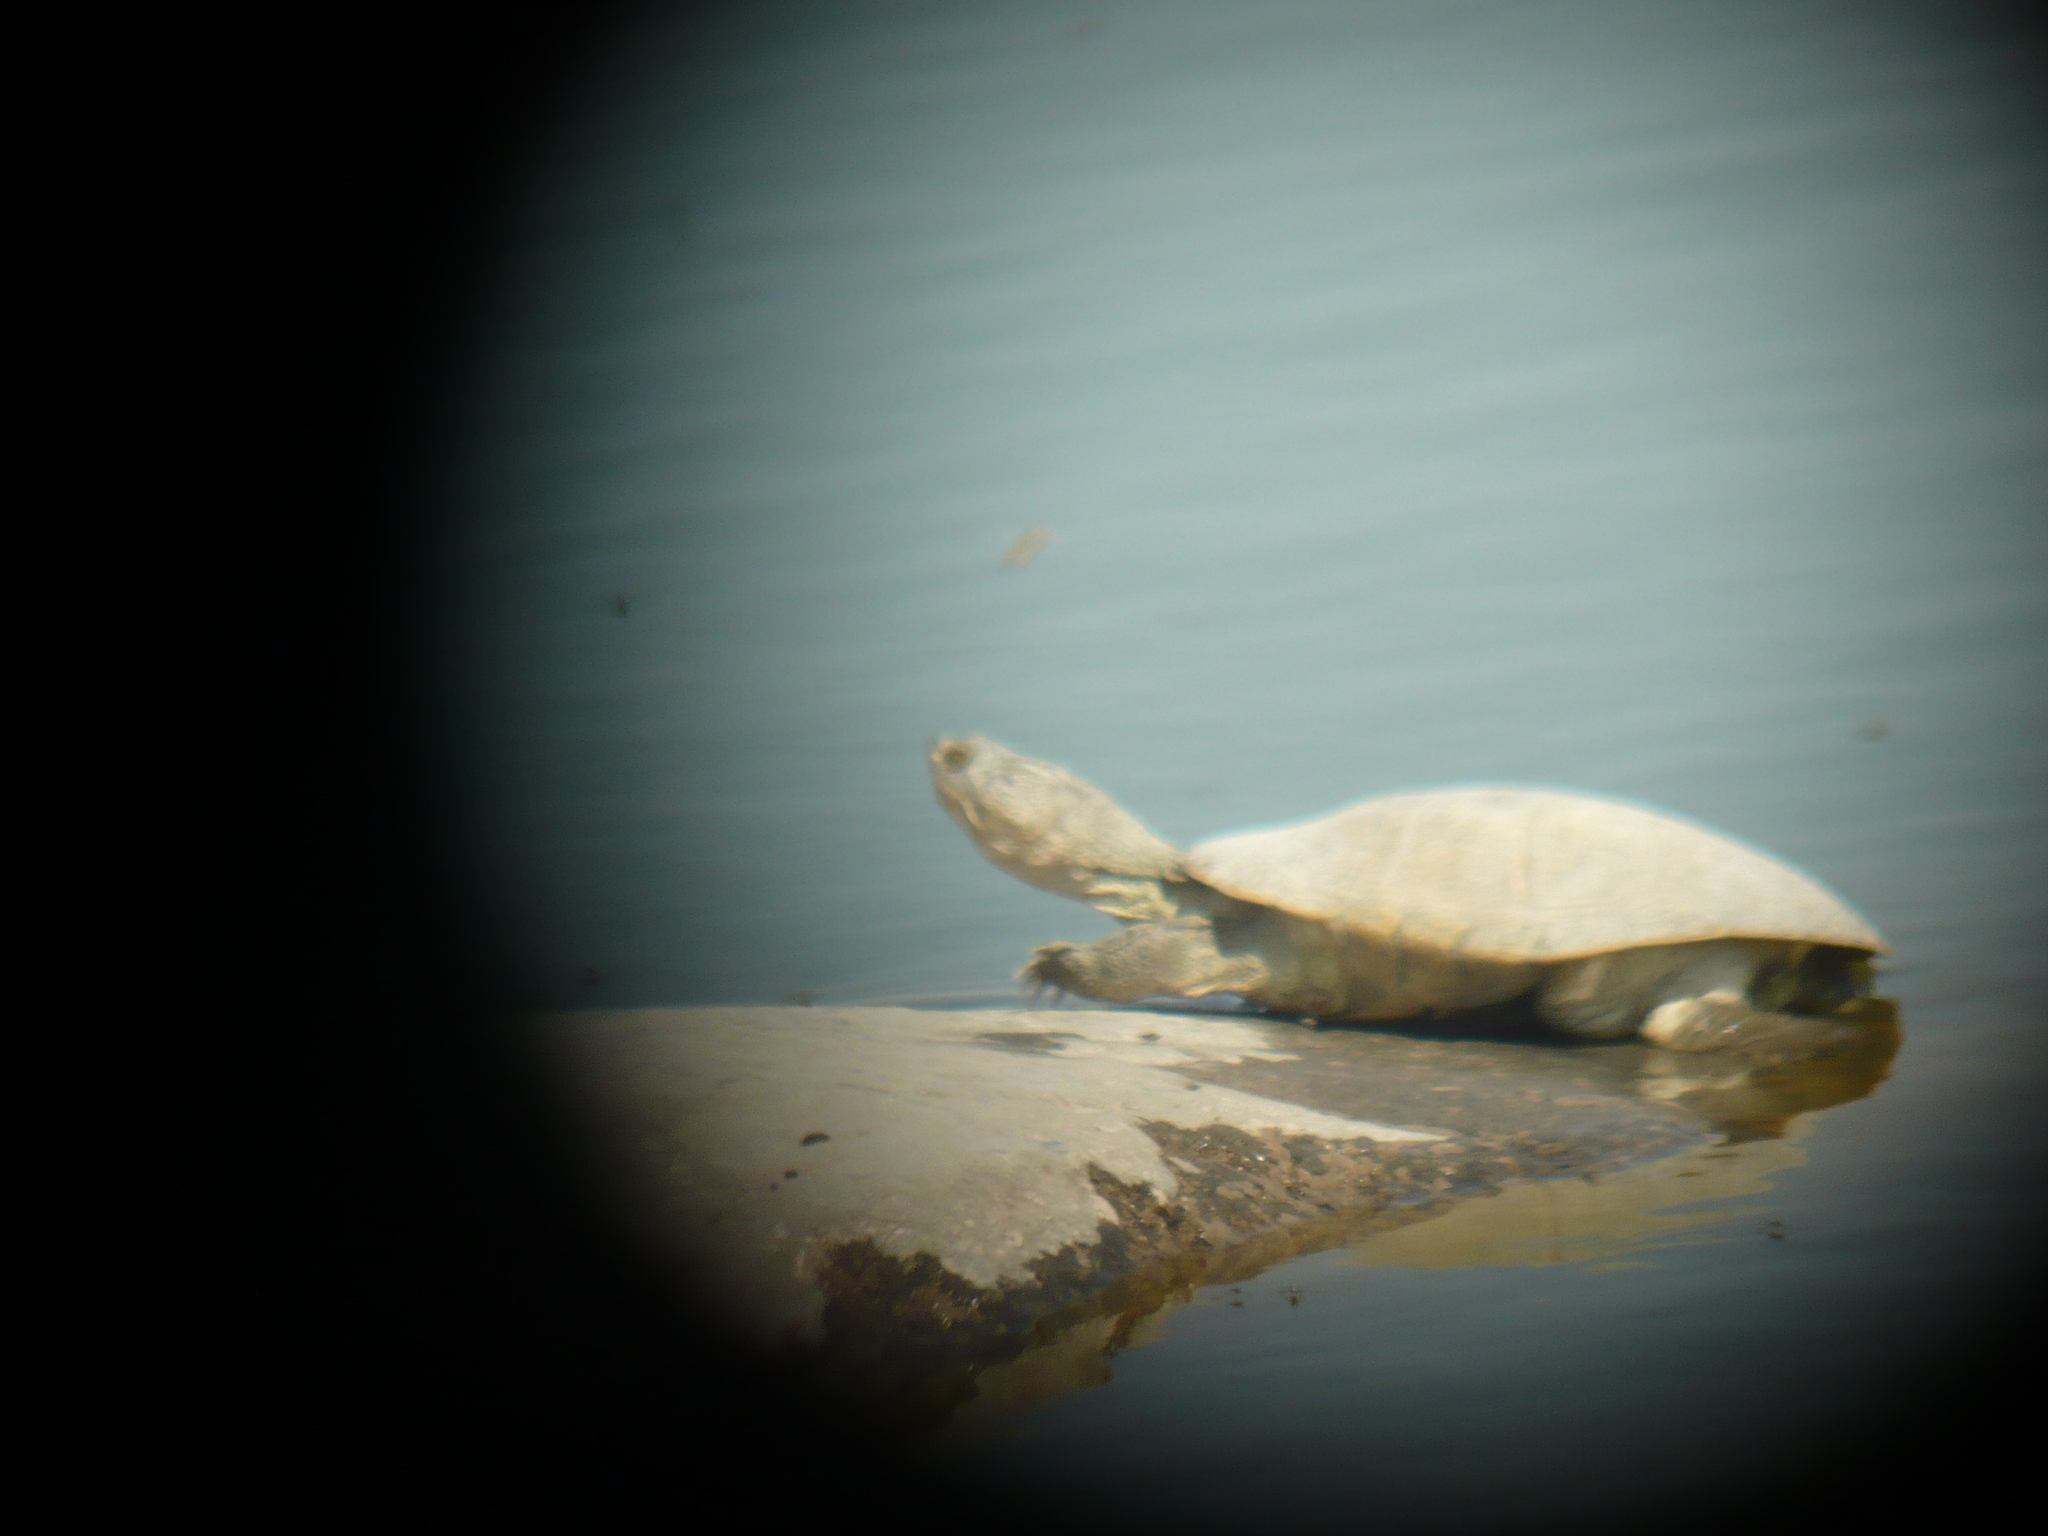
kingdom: Animalia
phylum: Chordata
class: Testudines
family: Pelomedusidae
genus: Pelomedusa
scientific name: Pelomedusa subrufa
